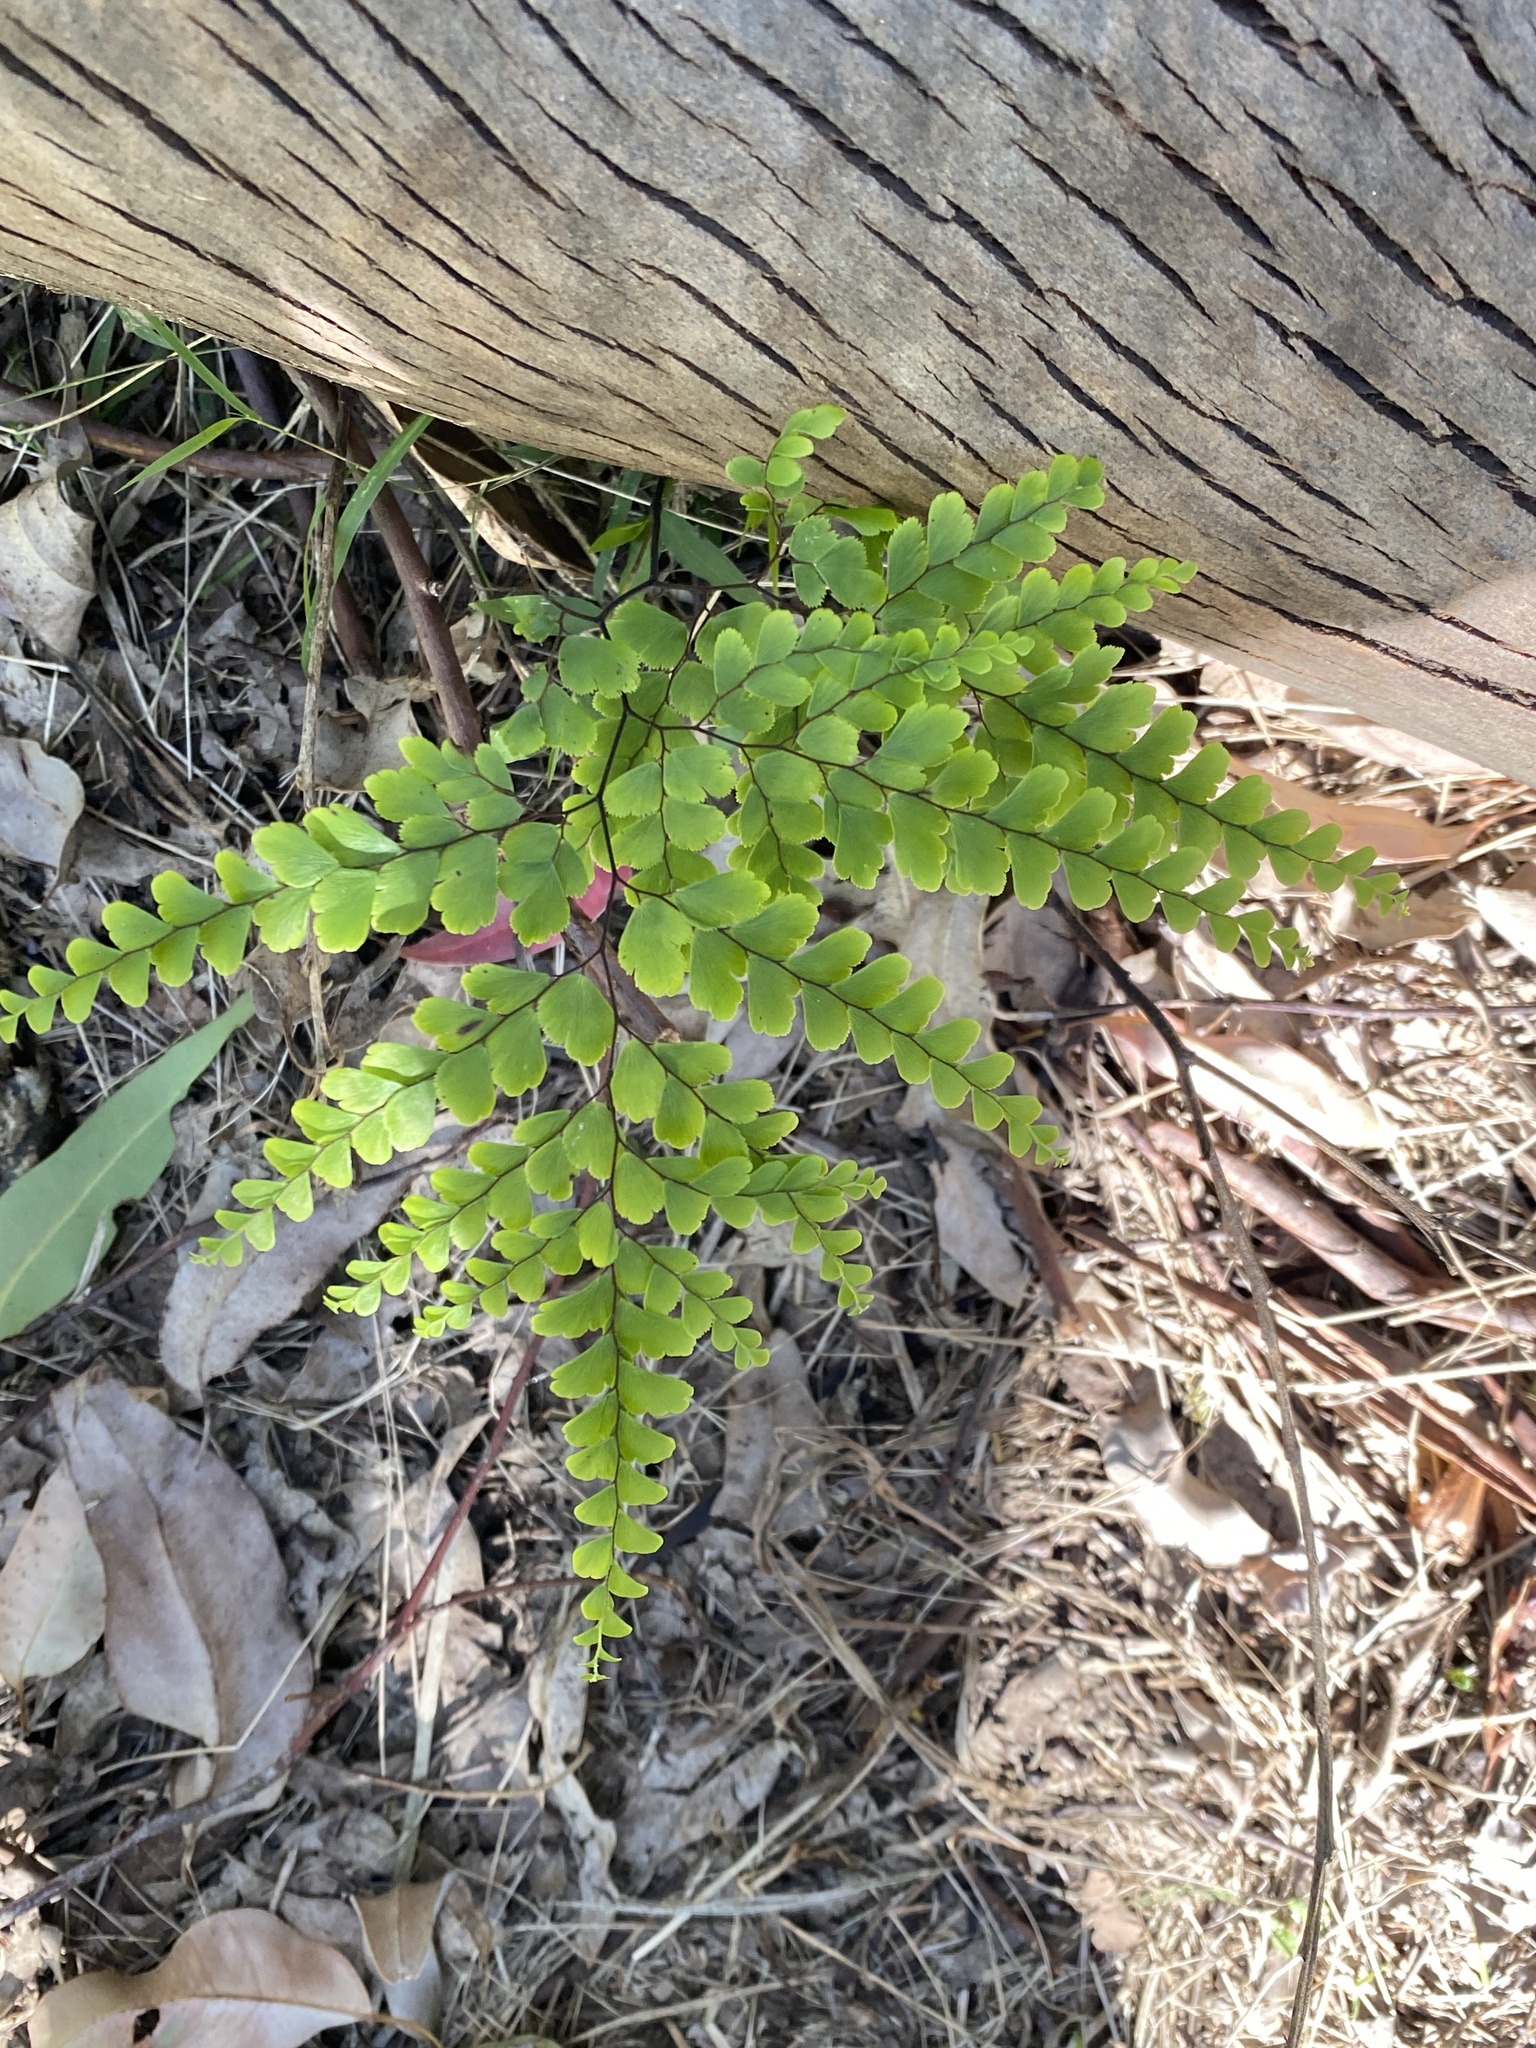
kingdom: Plantae
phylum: Tracheophyta
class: Polypodiopsida
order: Polypodiales
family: Pteridaceae
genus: Adiantum
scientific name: Adiantum formosum
